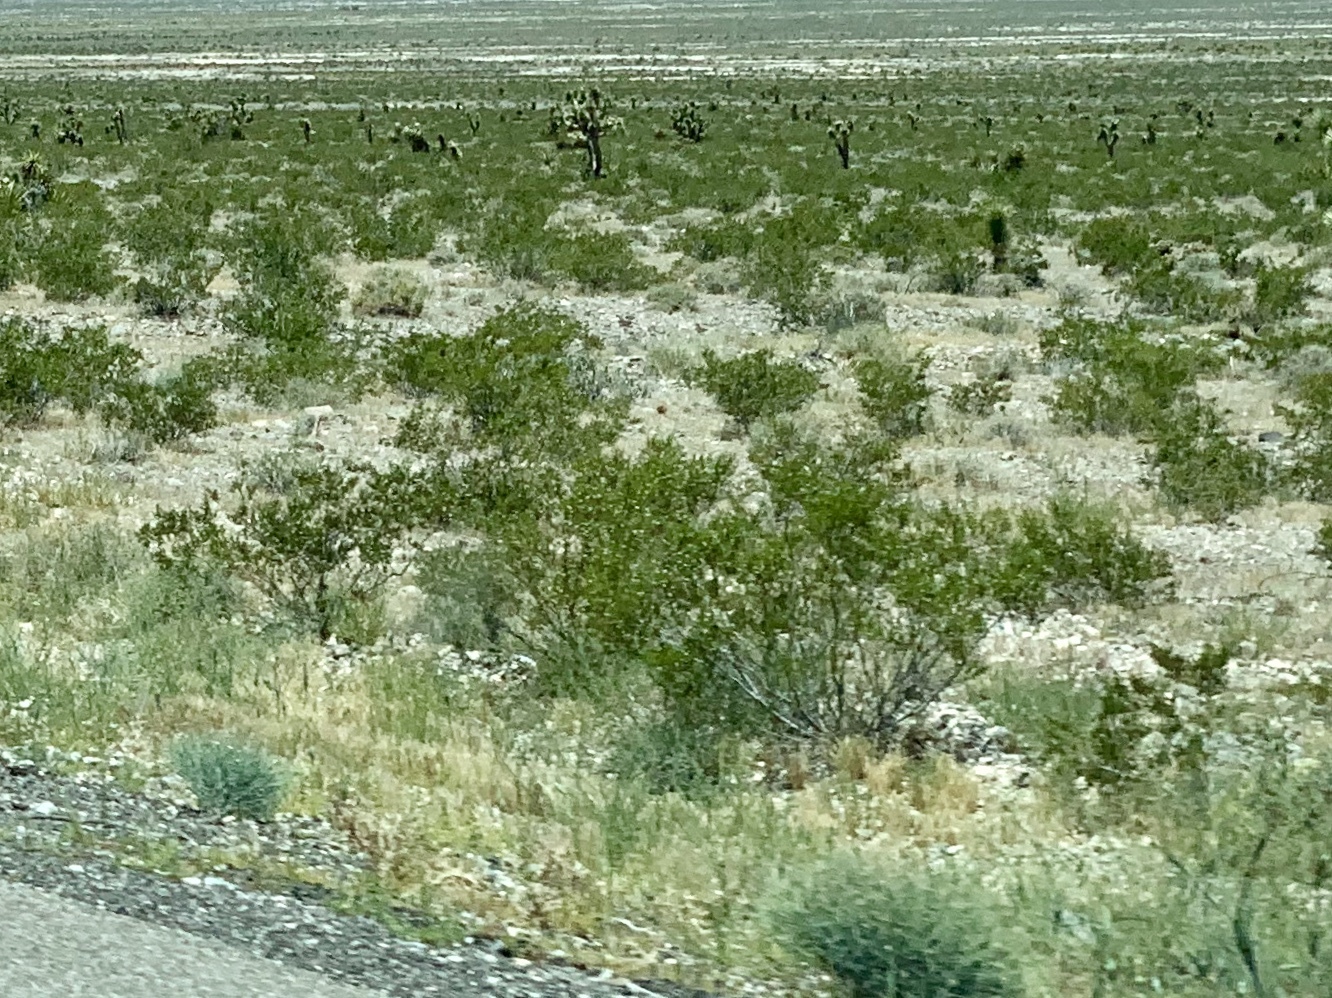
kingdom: Plantae
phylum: Tracheophyta
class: Magnoliopsida
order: Zygophyllales
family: Zygophyllaceae
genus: Larrea
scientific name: Larrea tridentata
